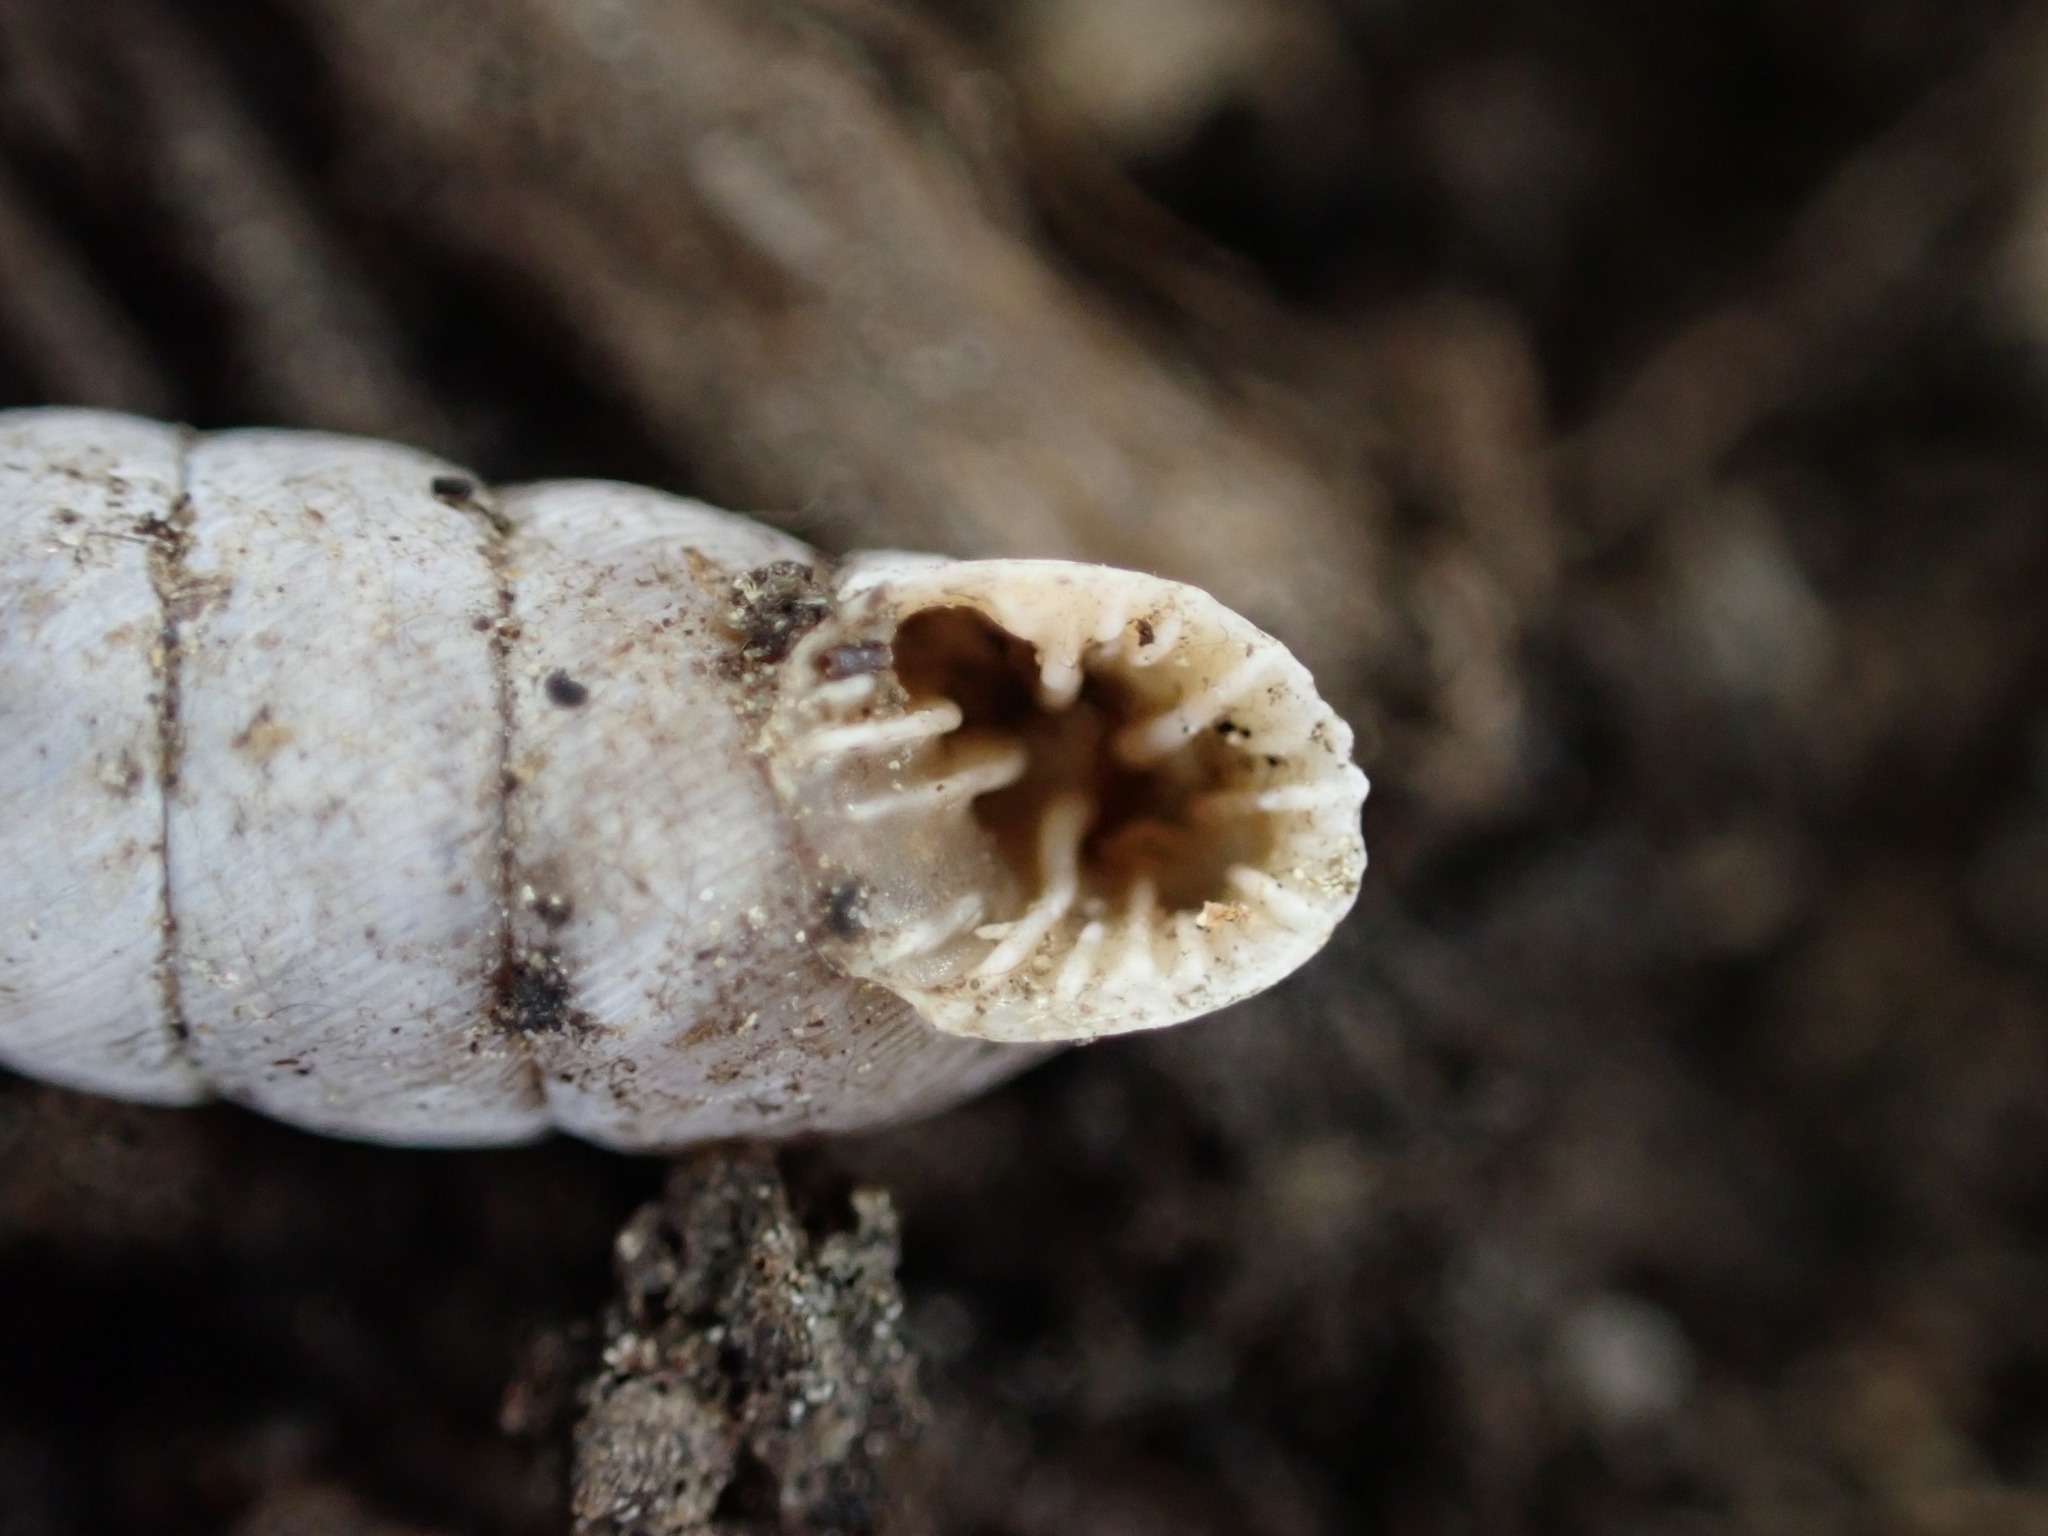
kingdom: Animalia
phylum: Mollusca
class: Gastropoda
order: Stylommatophora
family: Chondrinidae
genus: Abida
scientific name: Abida polyodon
